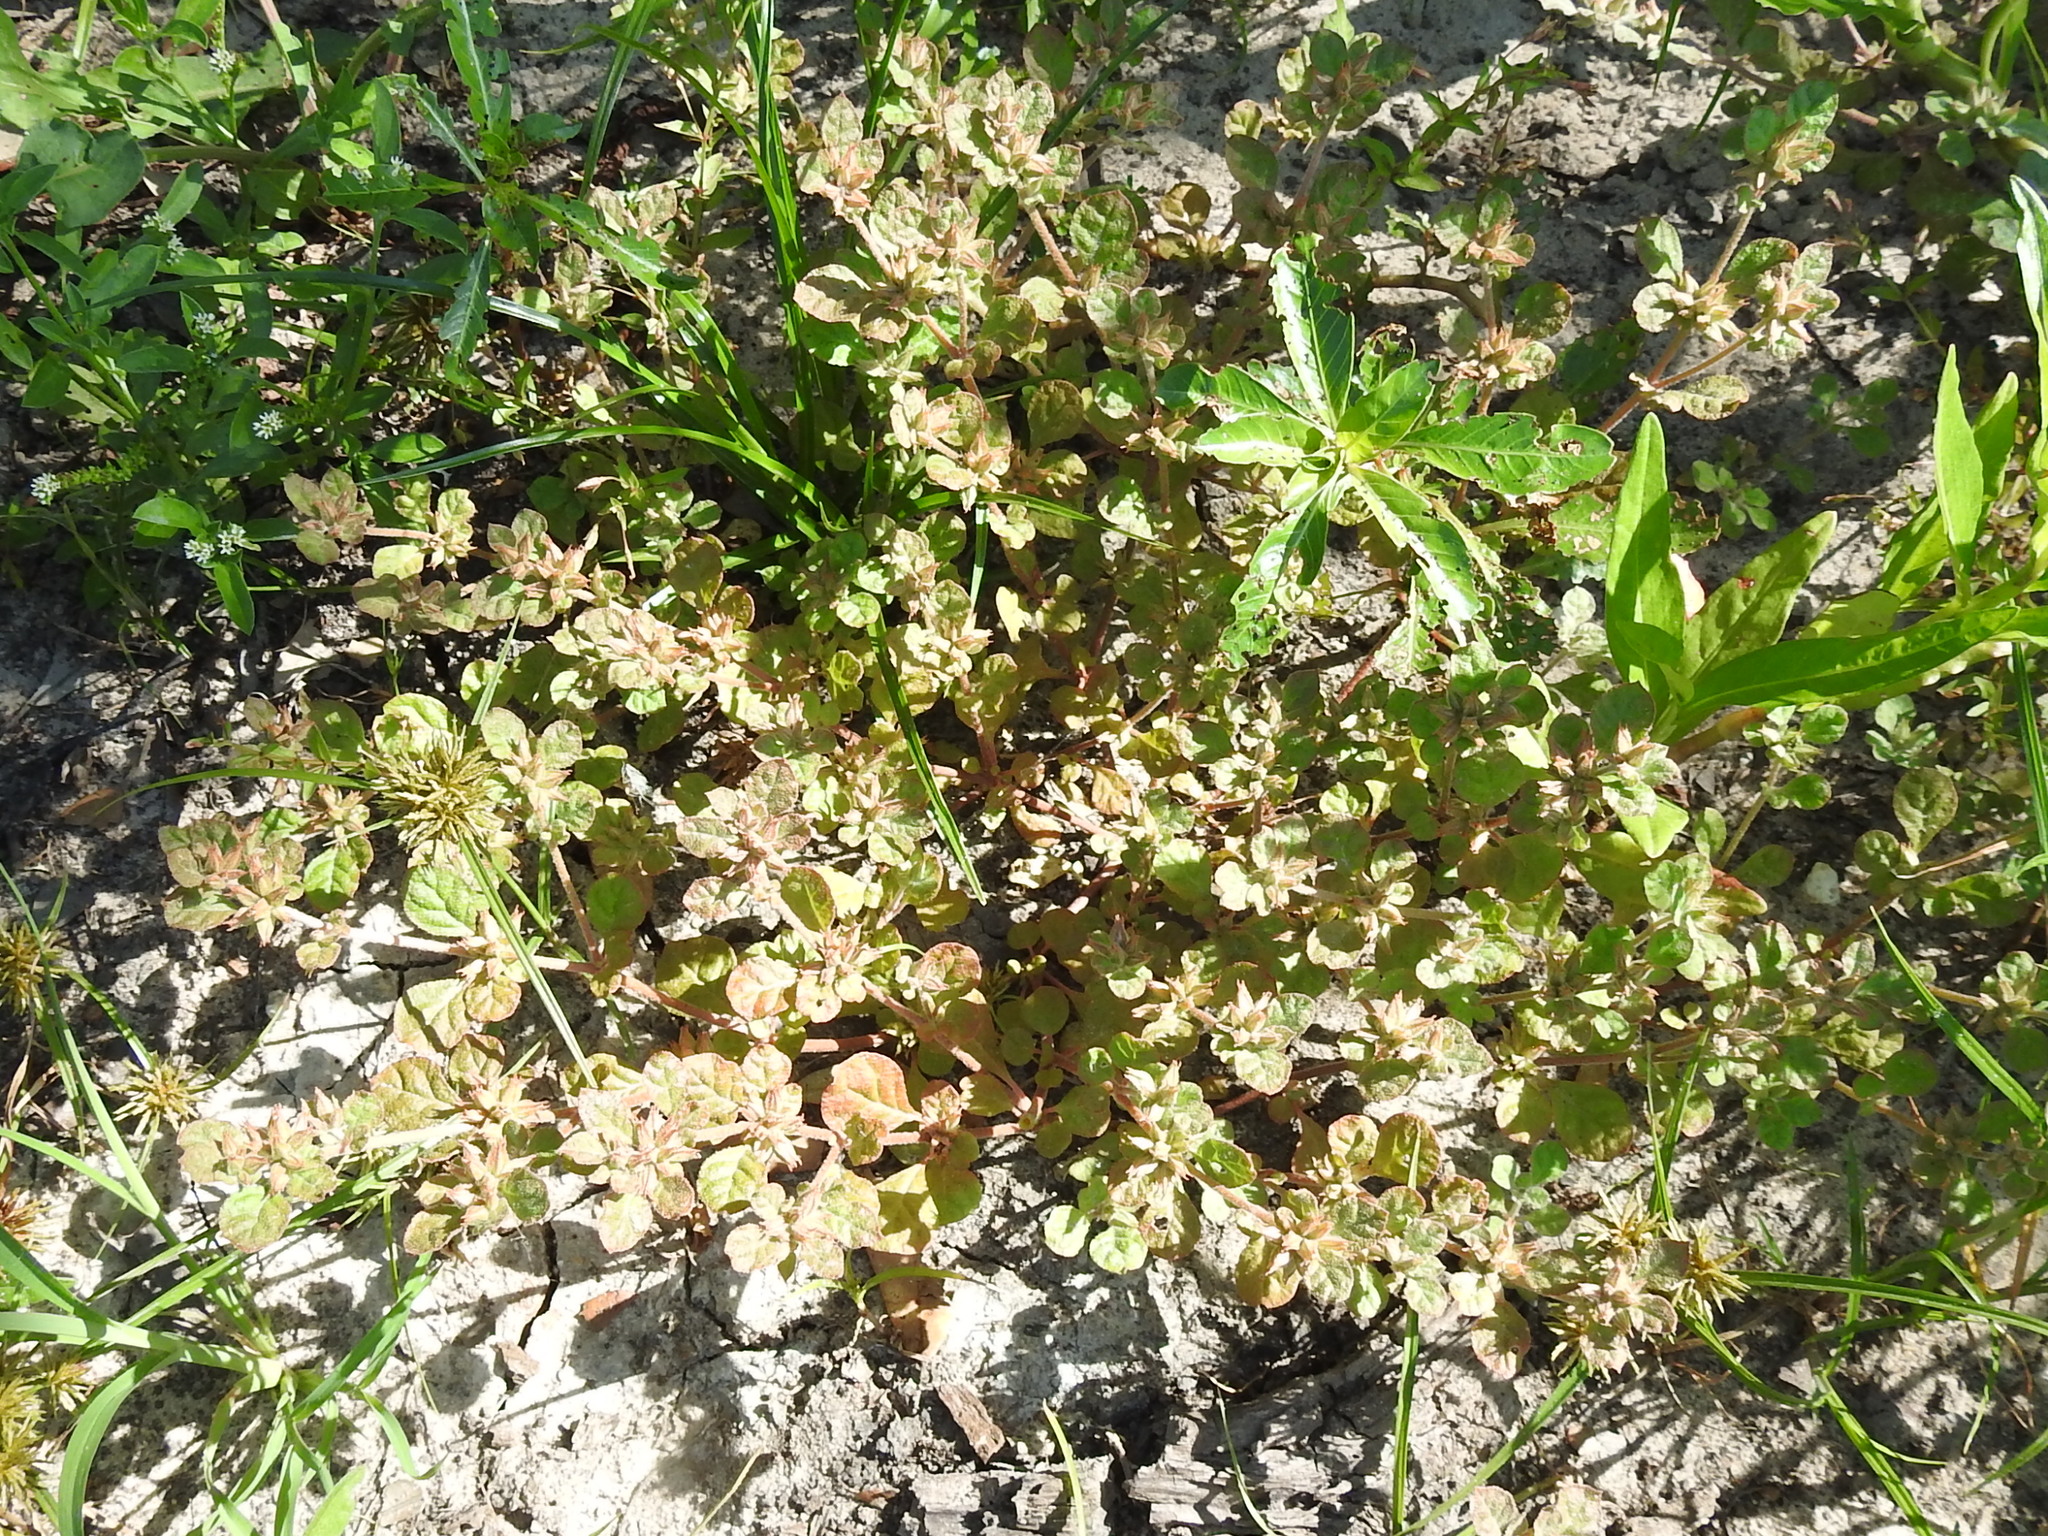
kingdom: Plantae
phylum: Tracheophyta
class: Magnoliopsida
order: Caryophyllales
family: Molluginaceae
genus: Glinus
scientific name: Glinus radiatus
